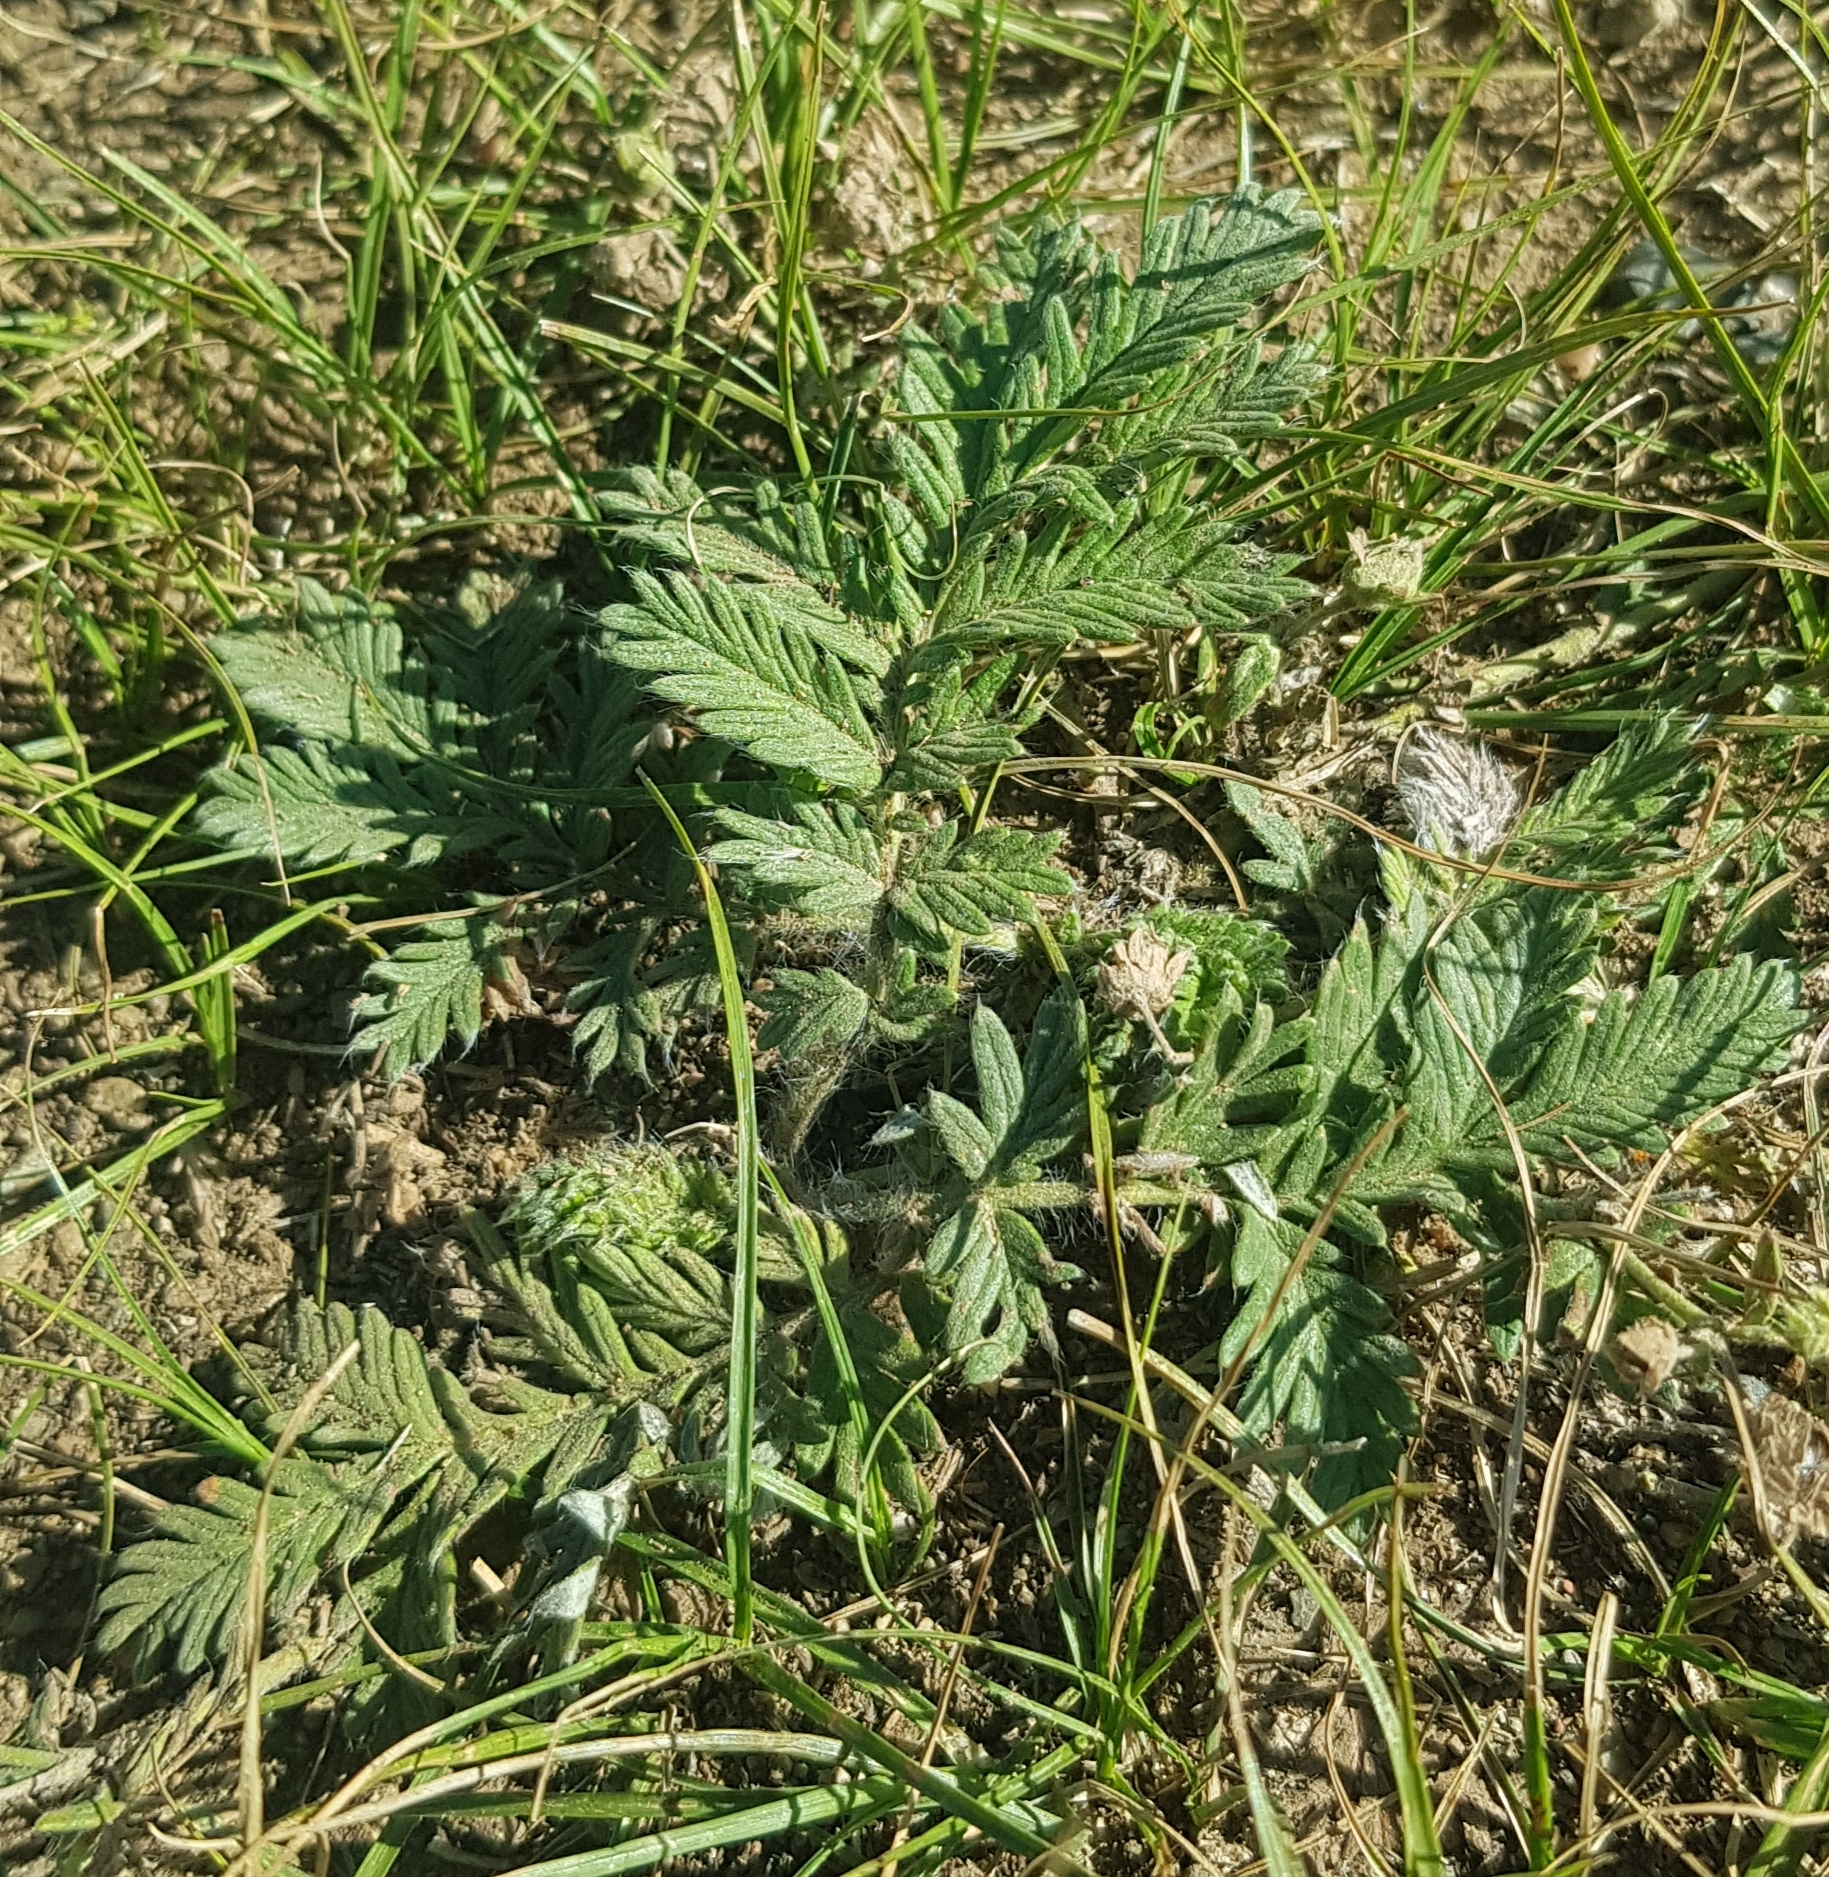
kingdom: Plantae
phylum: Tracheophyta
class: Magnoliopsida
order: Rosales
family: Rosaceae
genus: Potentilla
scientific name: Potentilla tergemina
